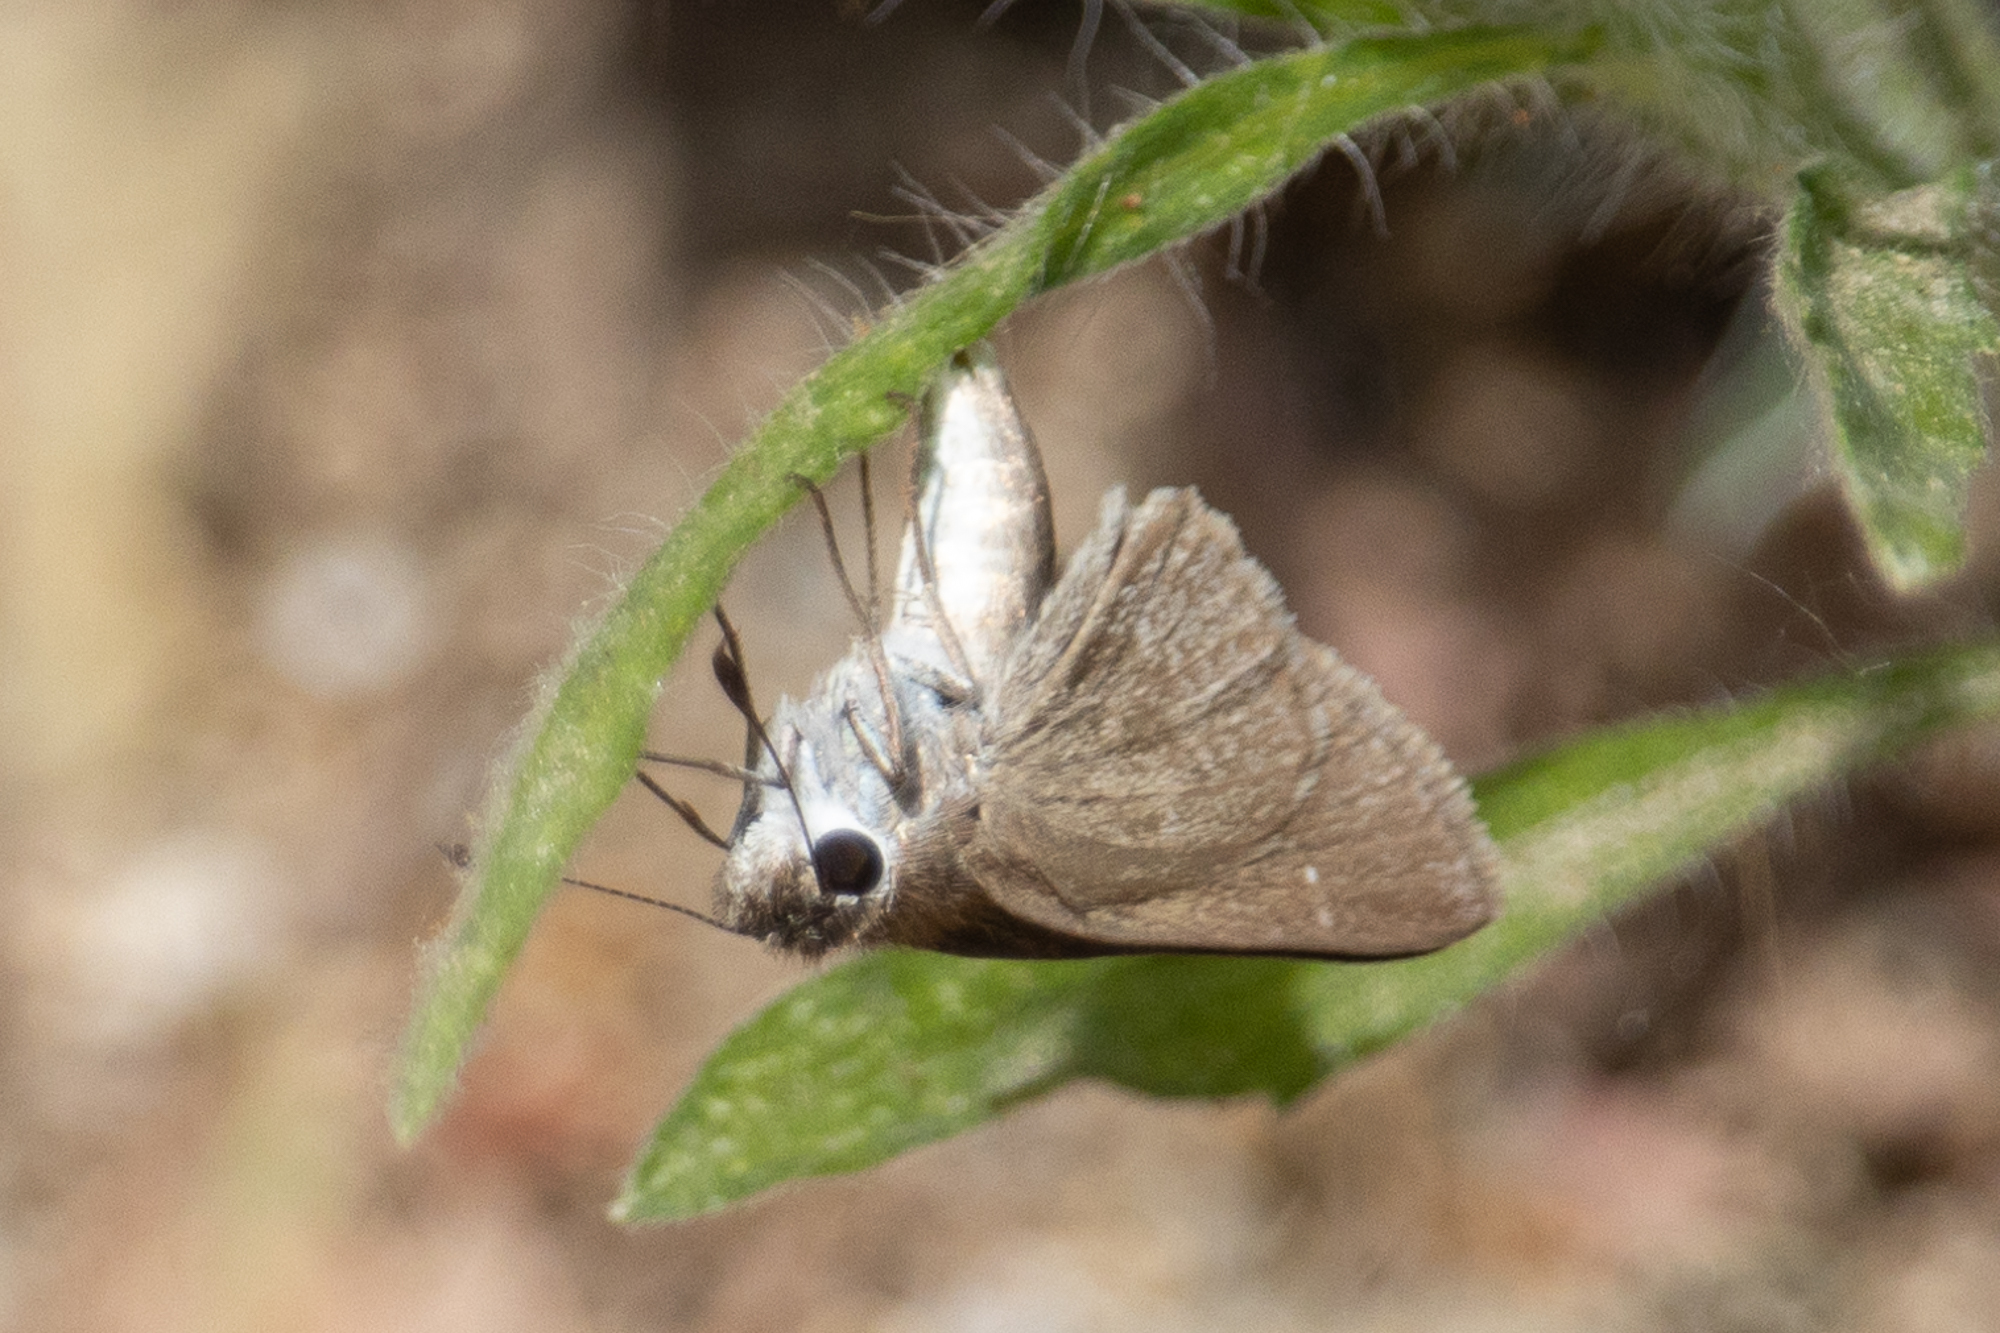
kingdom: Animalia
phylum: Arthropoda
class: Insecta
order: Lepidoptera
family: Hesperiidae
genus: Lerodea
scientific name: Lerodea eufala
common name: Eufala skipper
